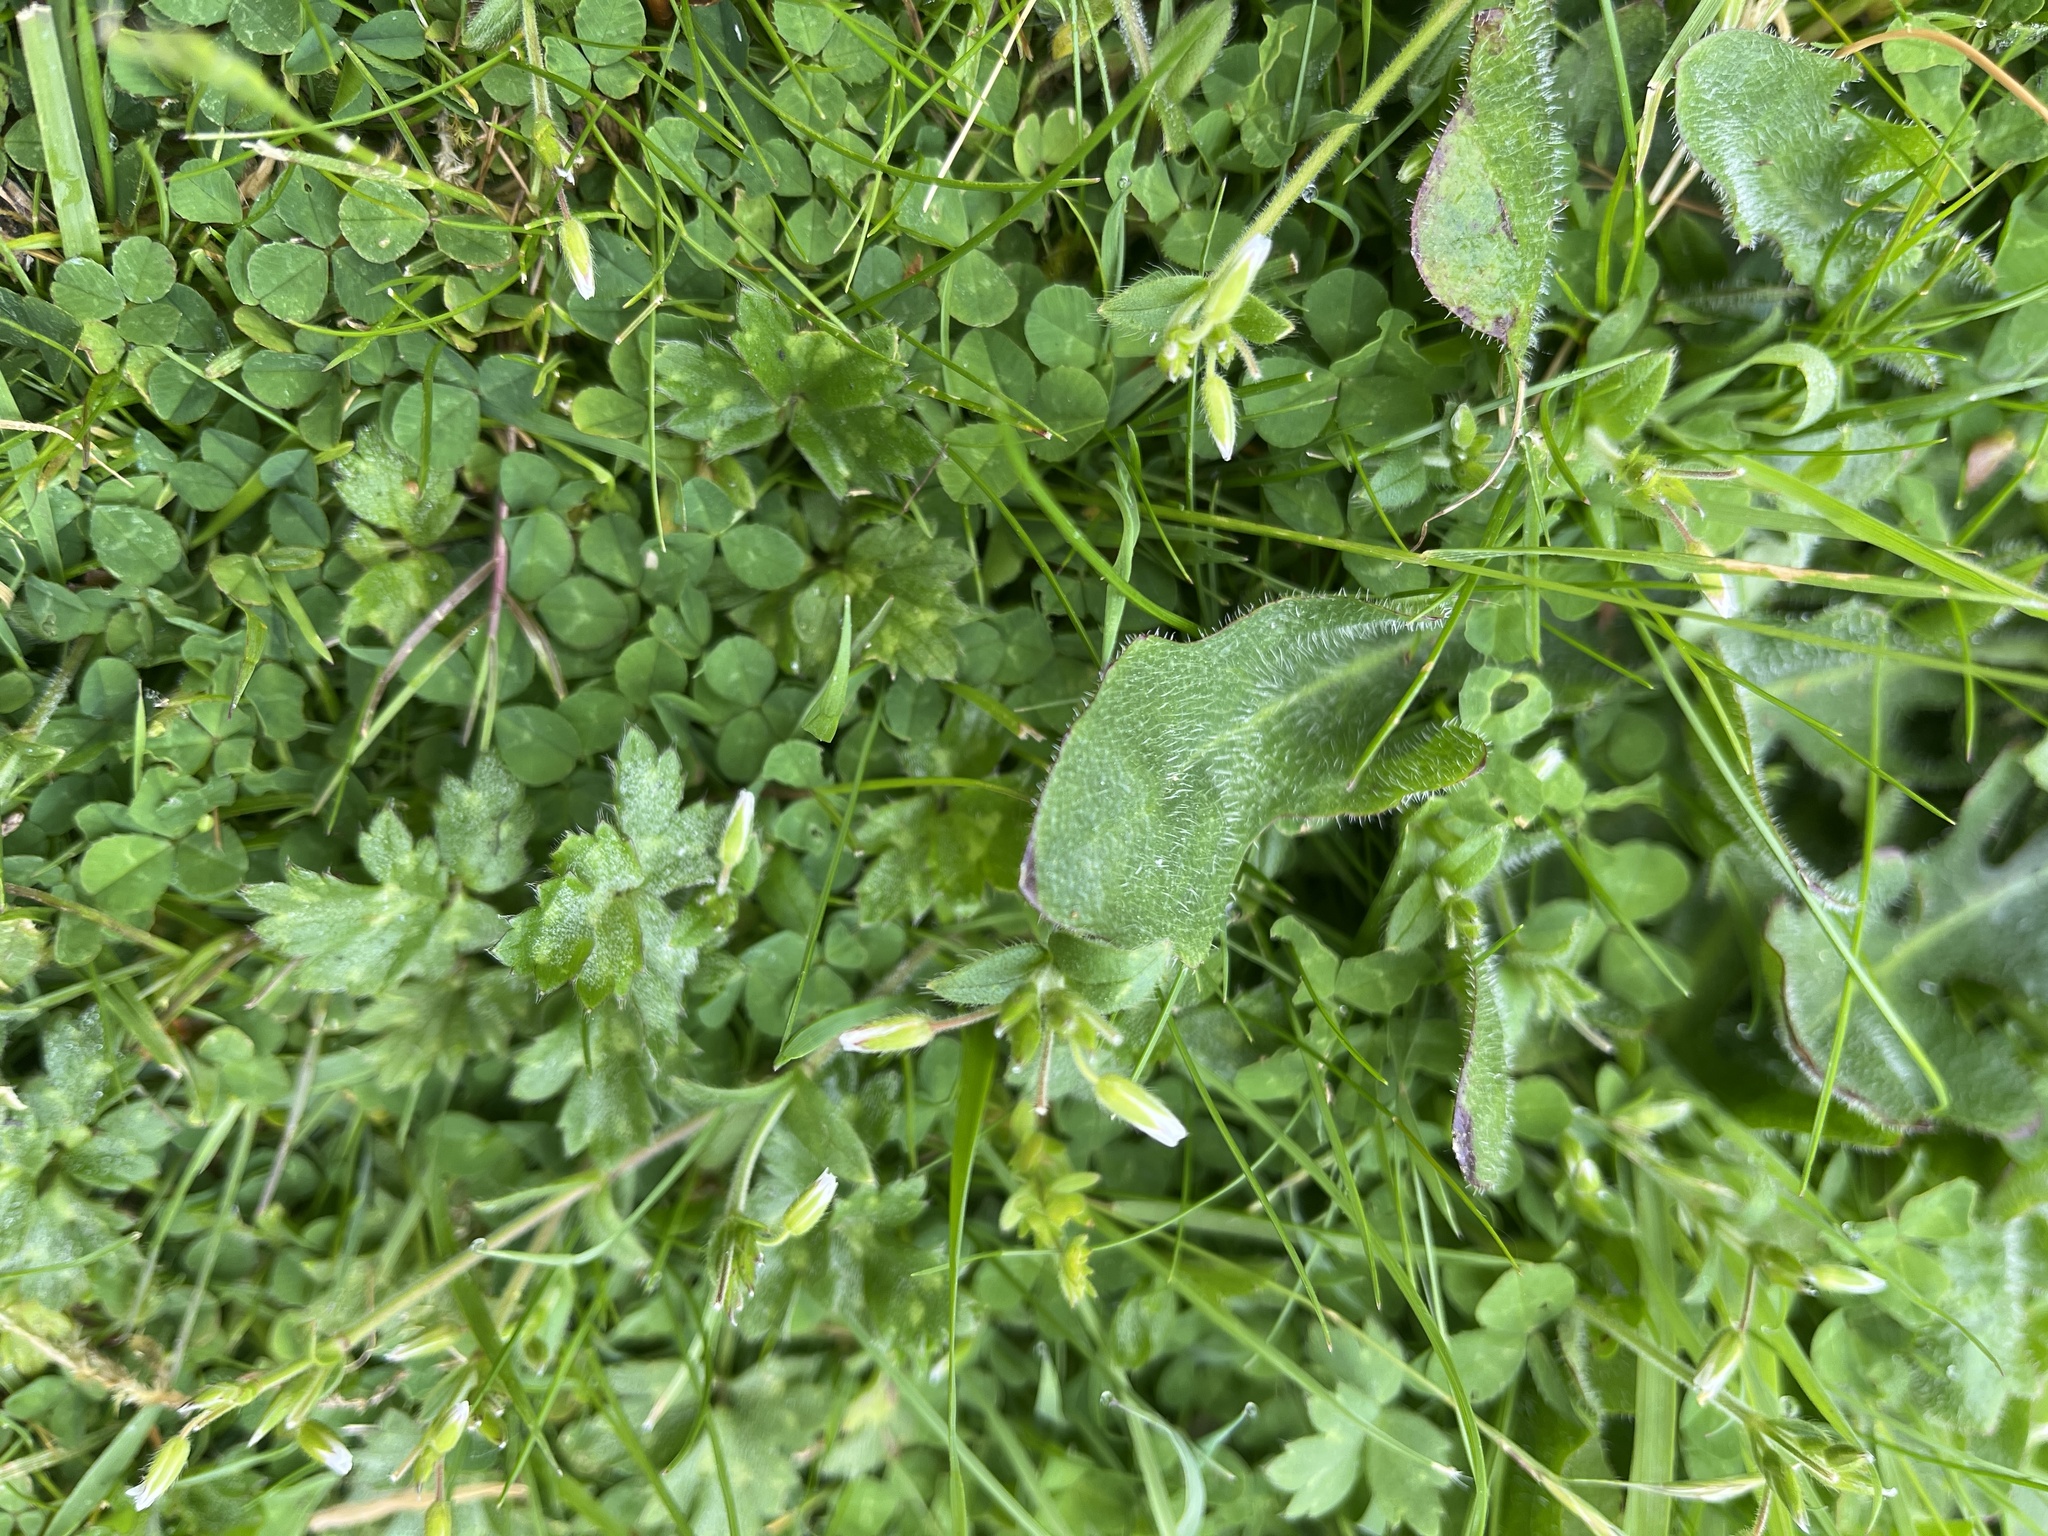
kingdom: Plantae
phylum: Tracheophyta
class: Magnoliopsida
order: Caryophyllales
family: Caryophyllaceae
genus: Cerastium
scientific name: Cerastium fontanum
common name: Common mouse-ear
